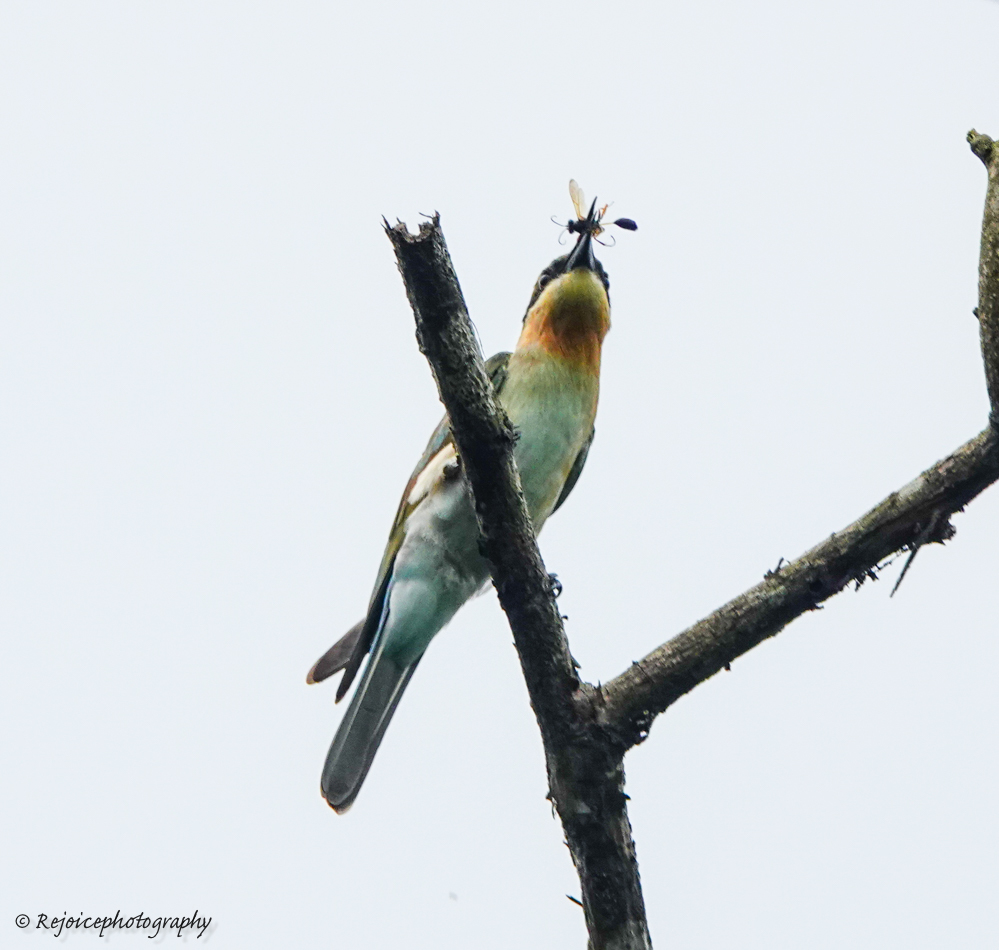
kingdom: Animalia
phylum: Chordata
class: Aves
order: Coraciiformes
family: Meropidae
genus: Merops
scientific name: Merops philippinus
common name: Blue-tailed bee-eater
